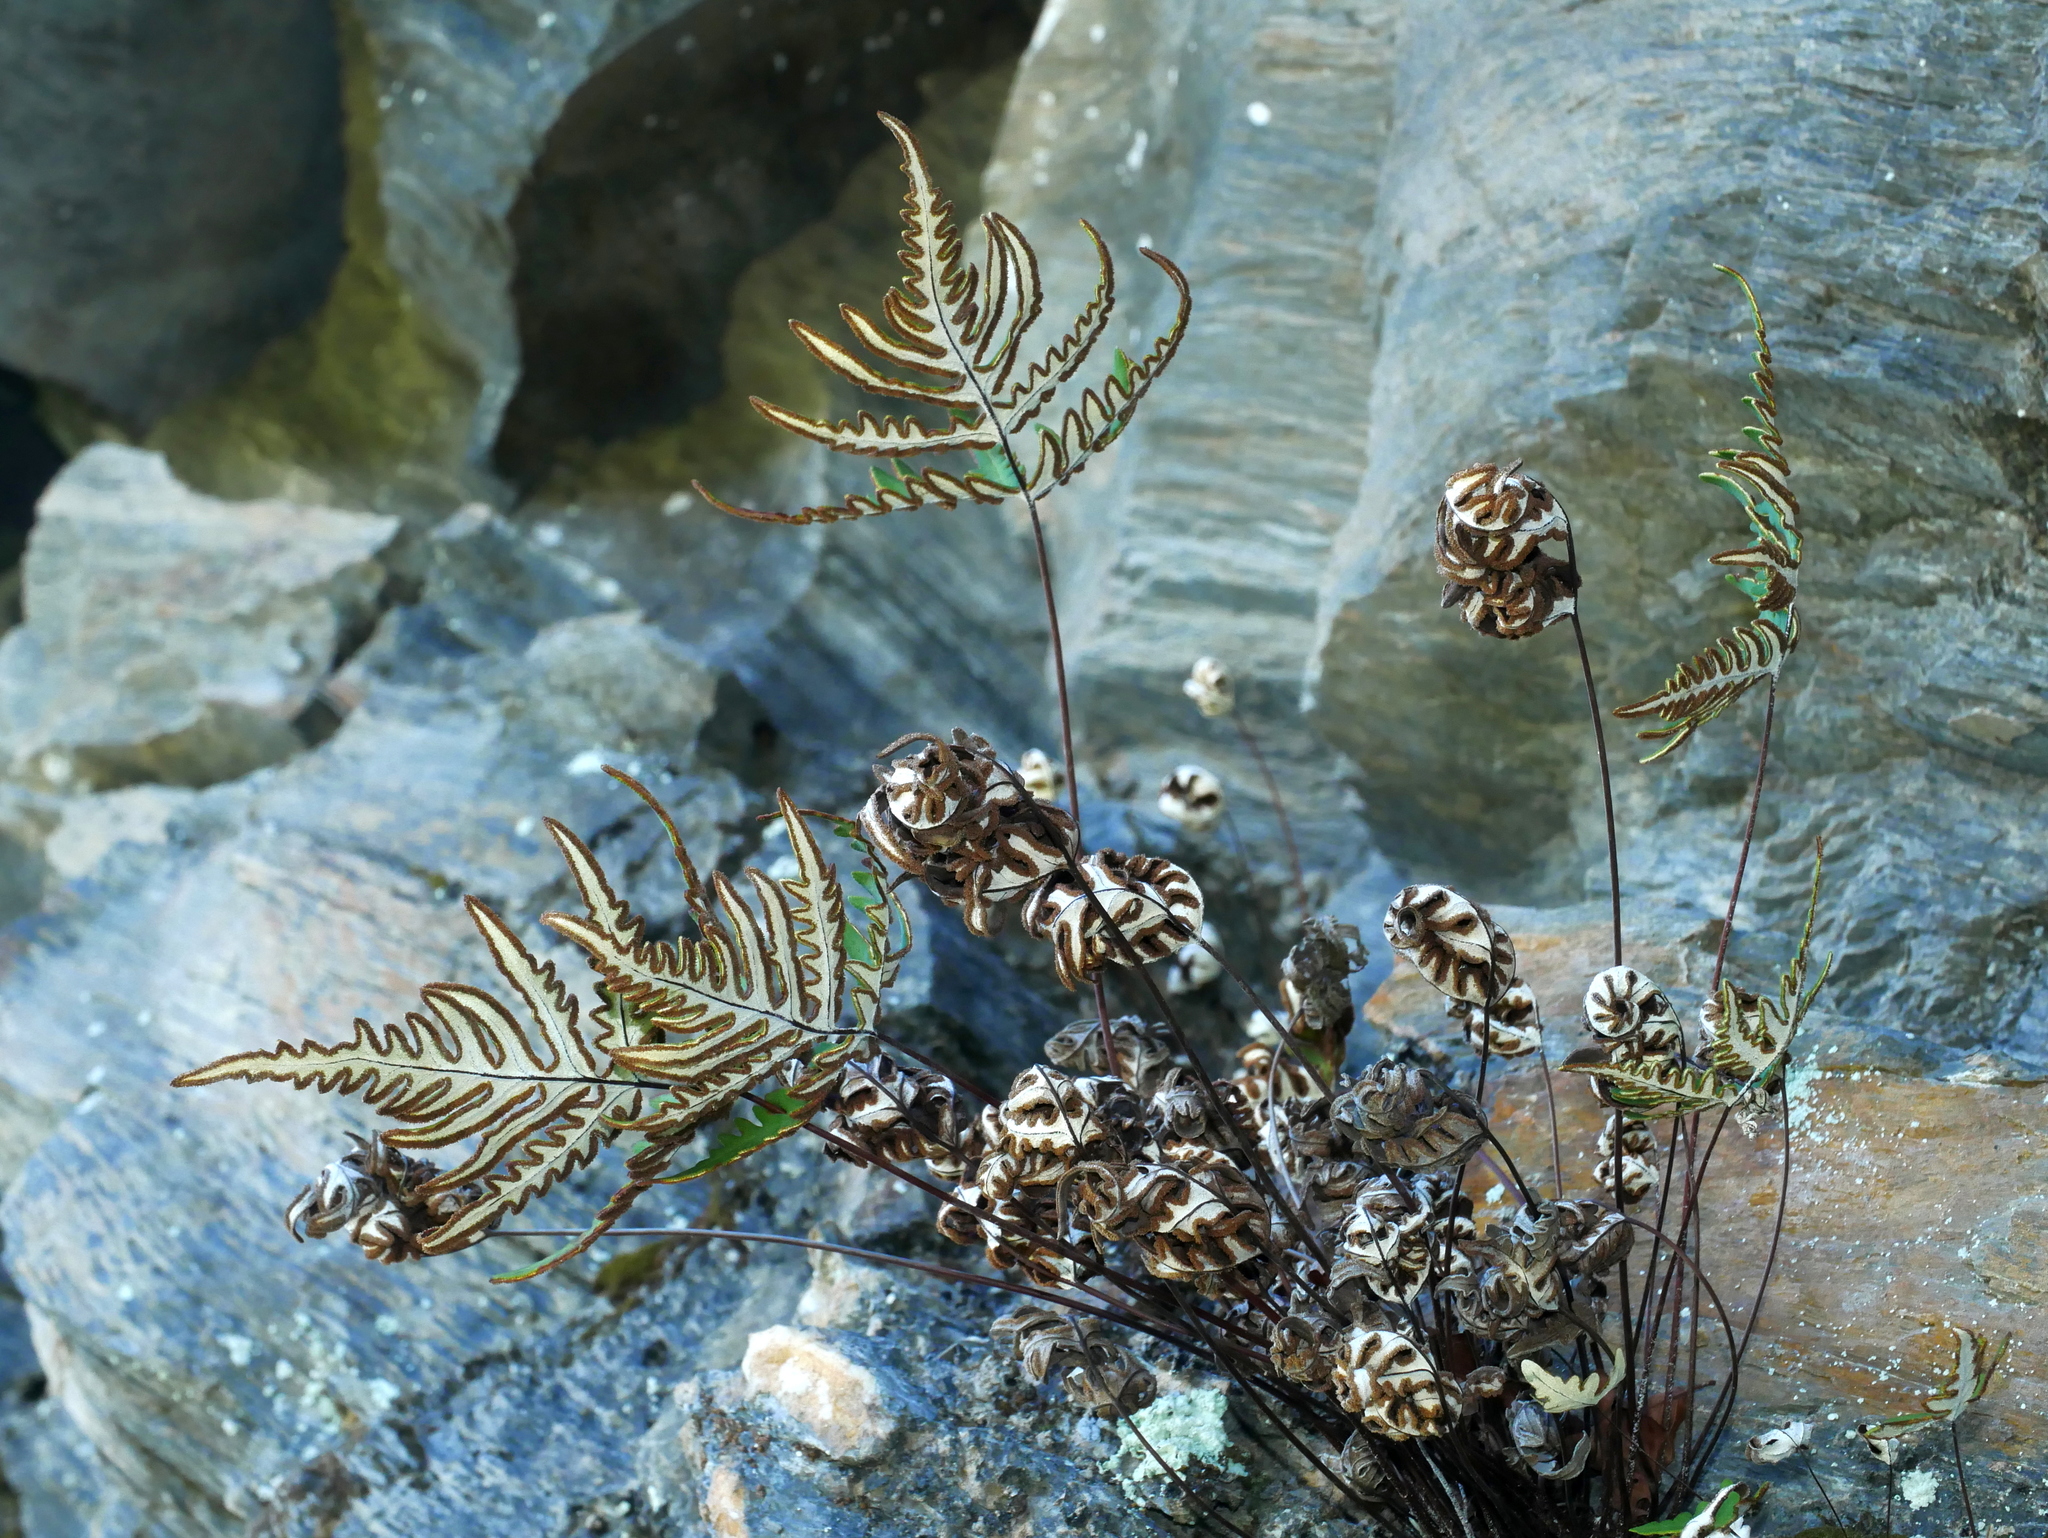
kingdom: Plantae
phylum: Tracheophyta
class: Polypodiopsida
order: Polypodiales
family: Pteridaceae
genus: Aleuritopteris
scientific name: Aleuritopteris argentea
